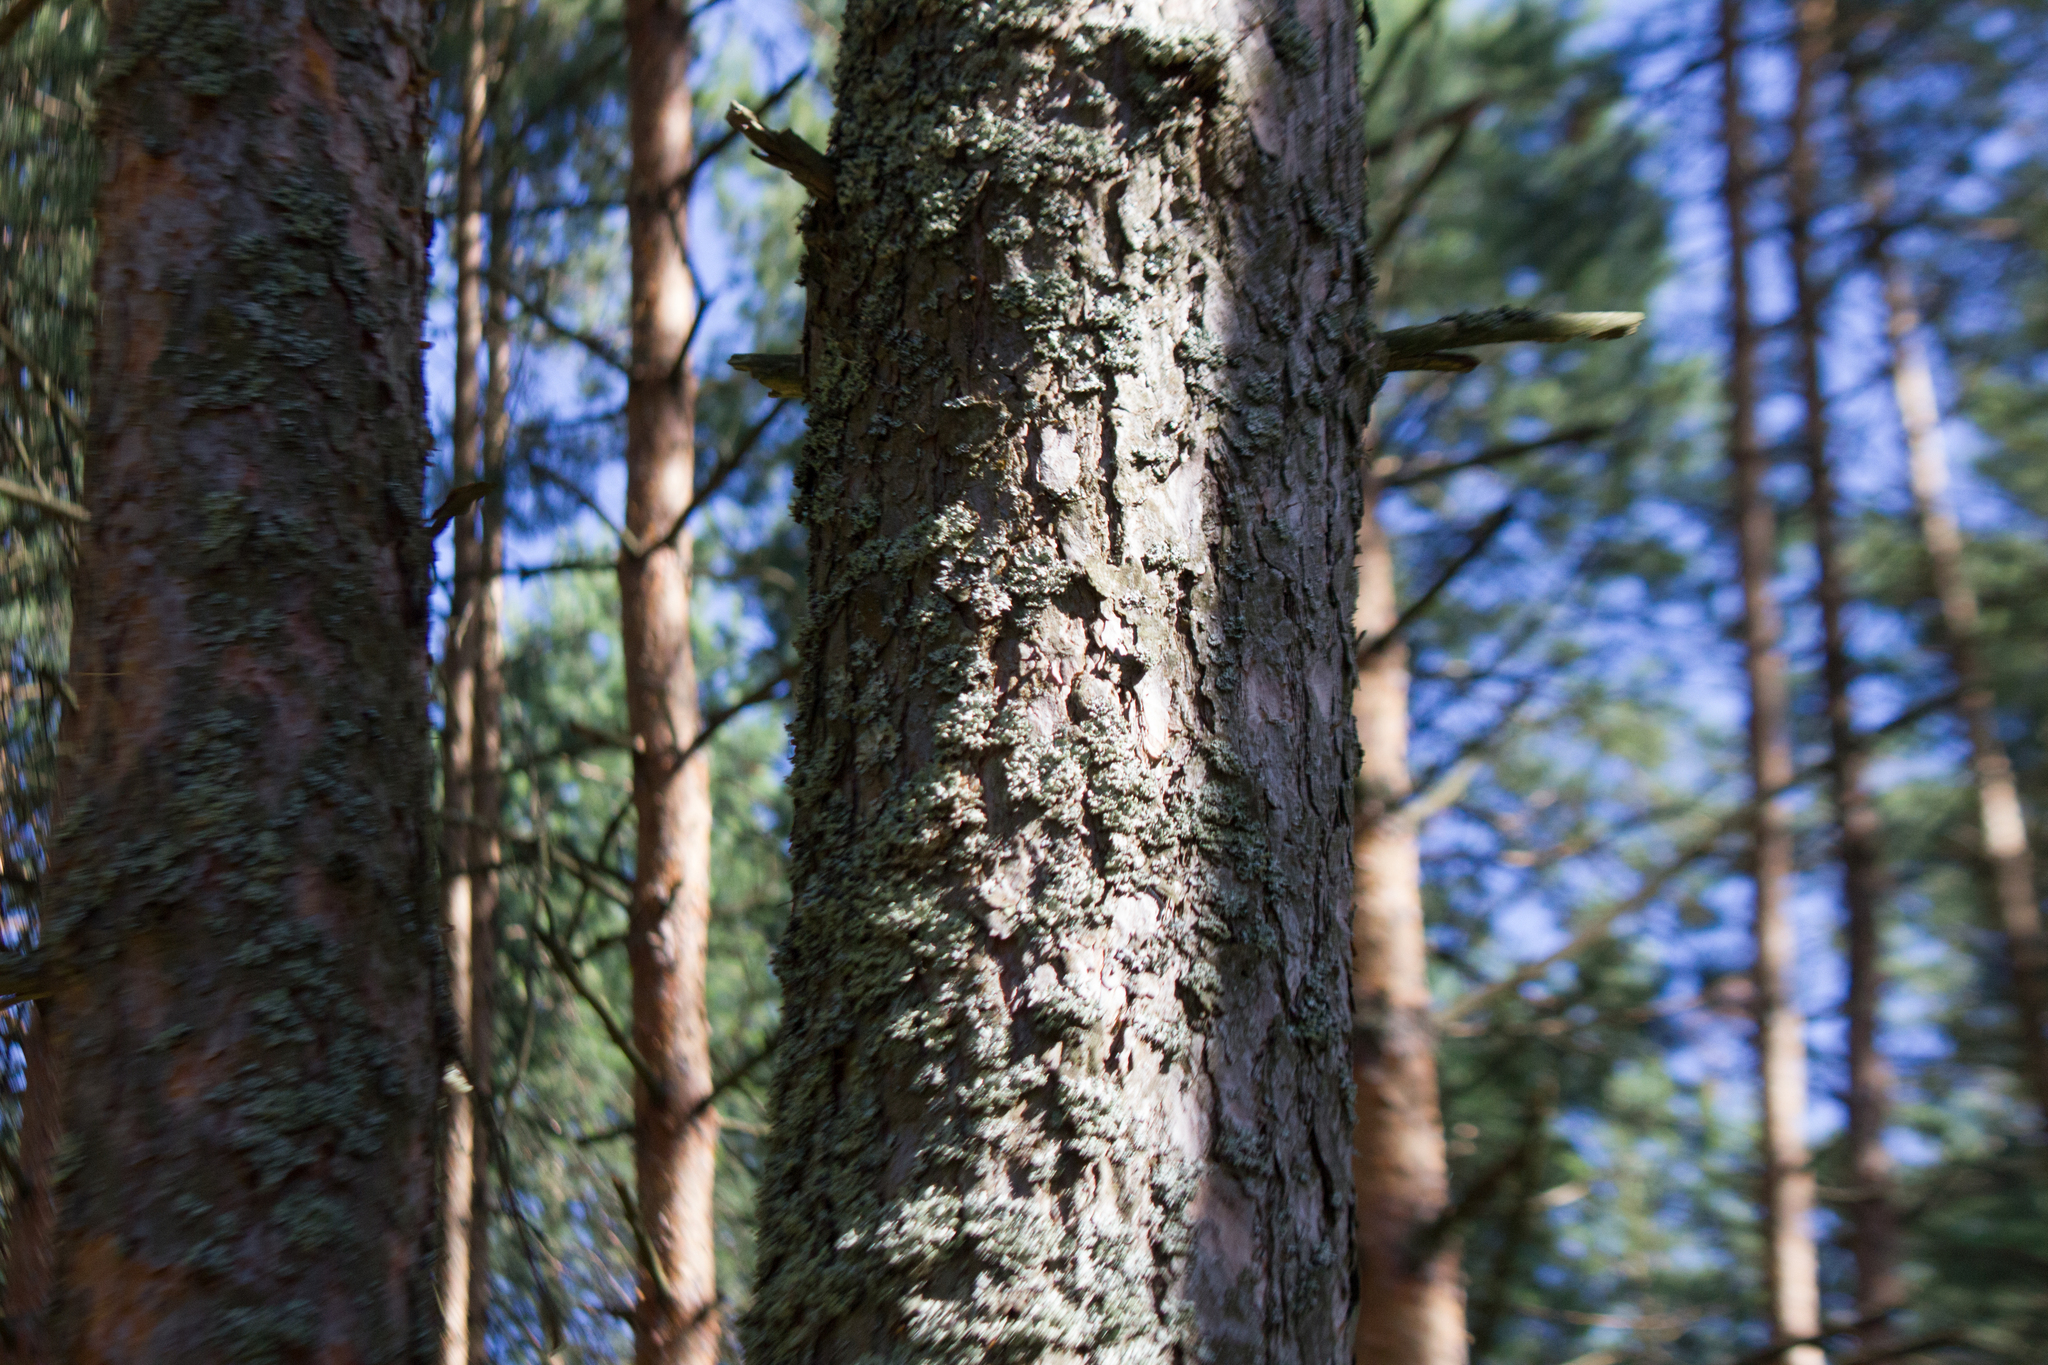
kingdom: Plantae
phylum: Tracheophyta
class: Pinopsida
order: Pinales
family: Pinaceae
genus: Pinus
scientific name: Pinus sylvestris
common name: Scots pine
